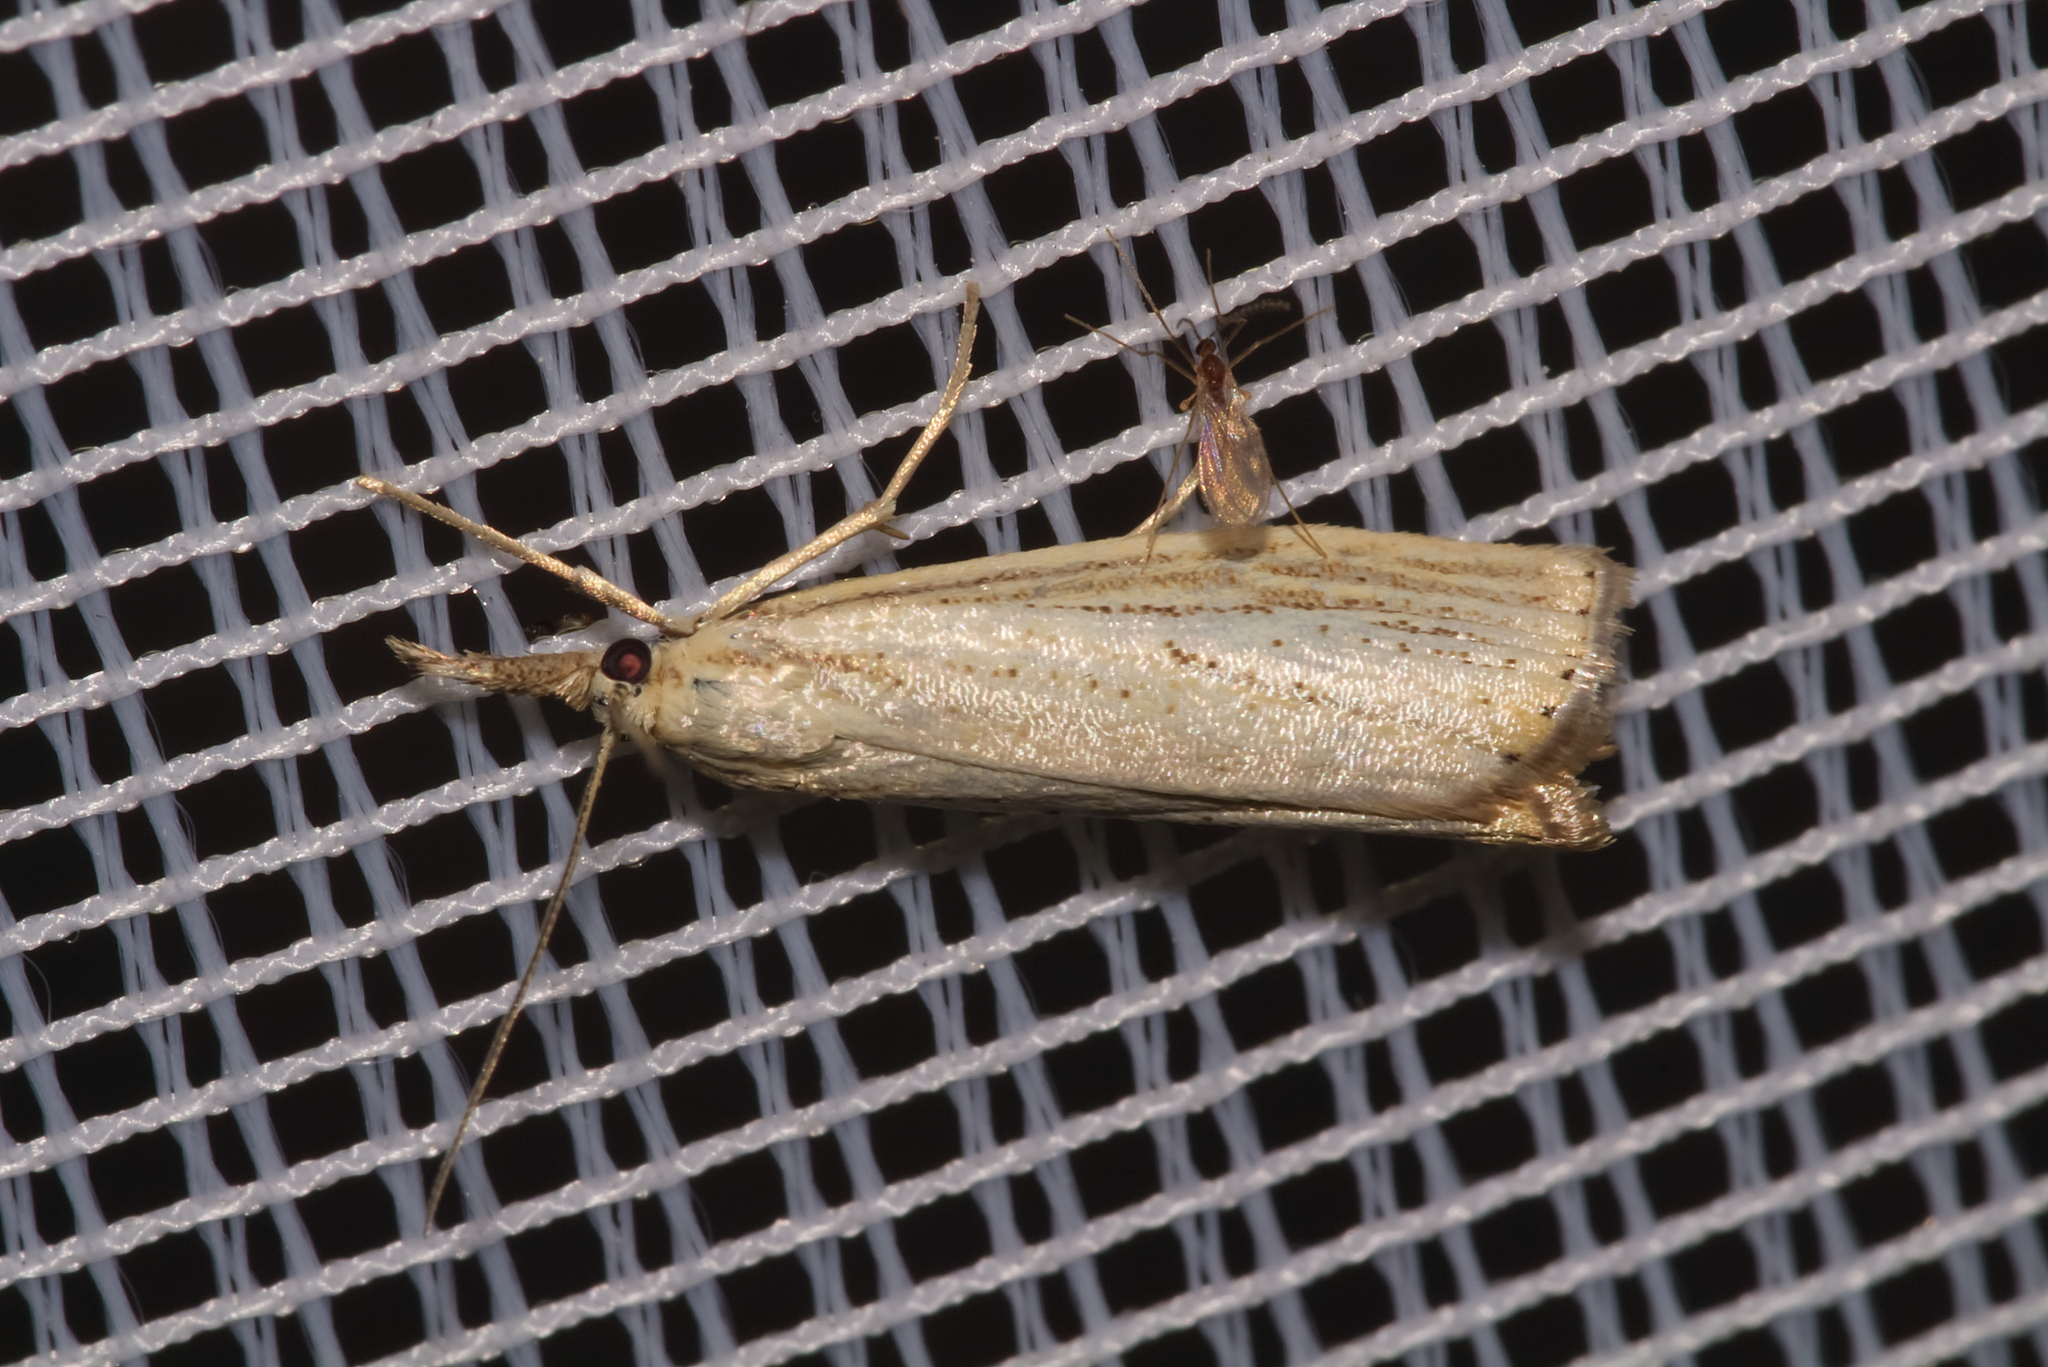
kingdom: Animalia
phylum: Arthropoda
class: Insecta
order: Lepidoptera
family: Crambidae
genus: Agriphila
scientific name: Agriphila straminella
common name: Straw grass-veneer
